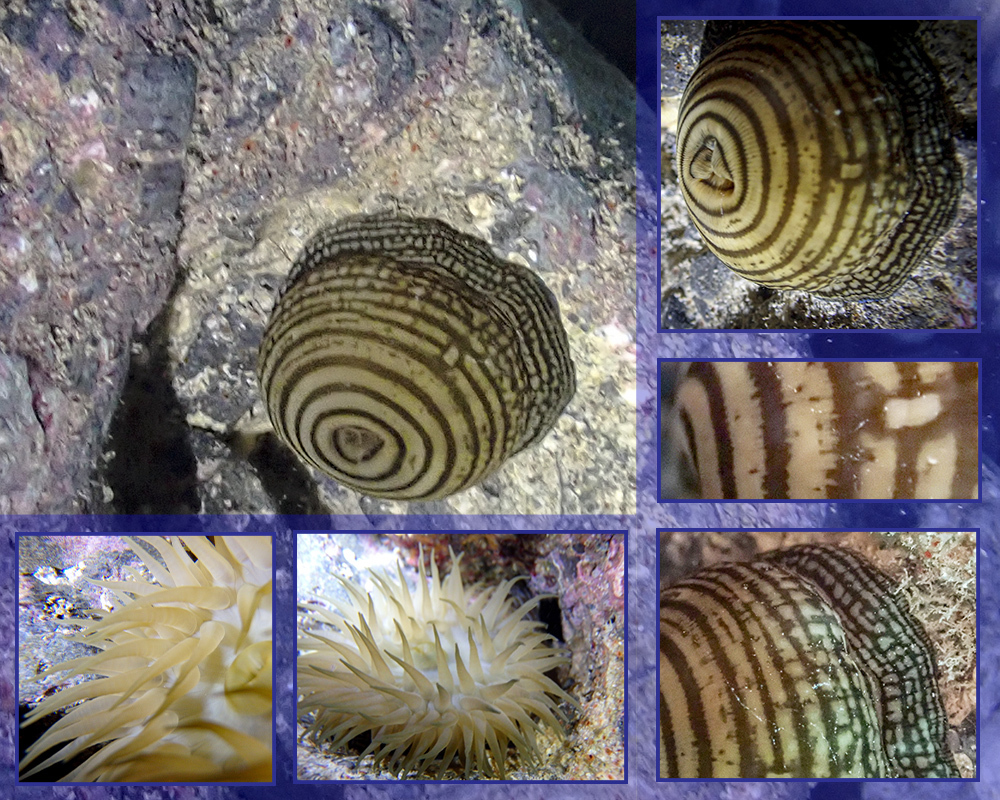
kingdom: Animalia
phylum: Cnidaria
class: Anthozoa
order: Actiniaria
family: Actiniidae
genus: Actinia
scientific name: Actinia cari
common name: Green sea anemone
